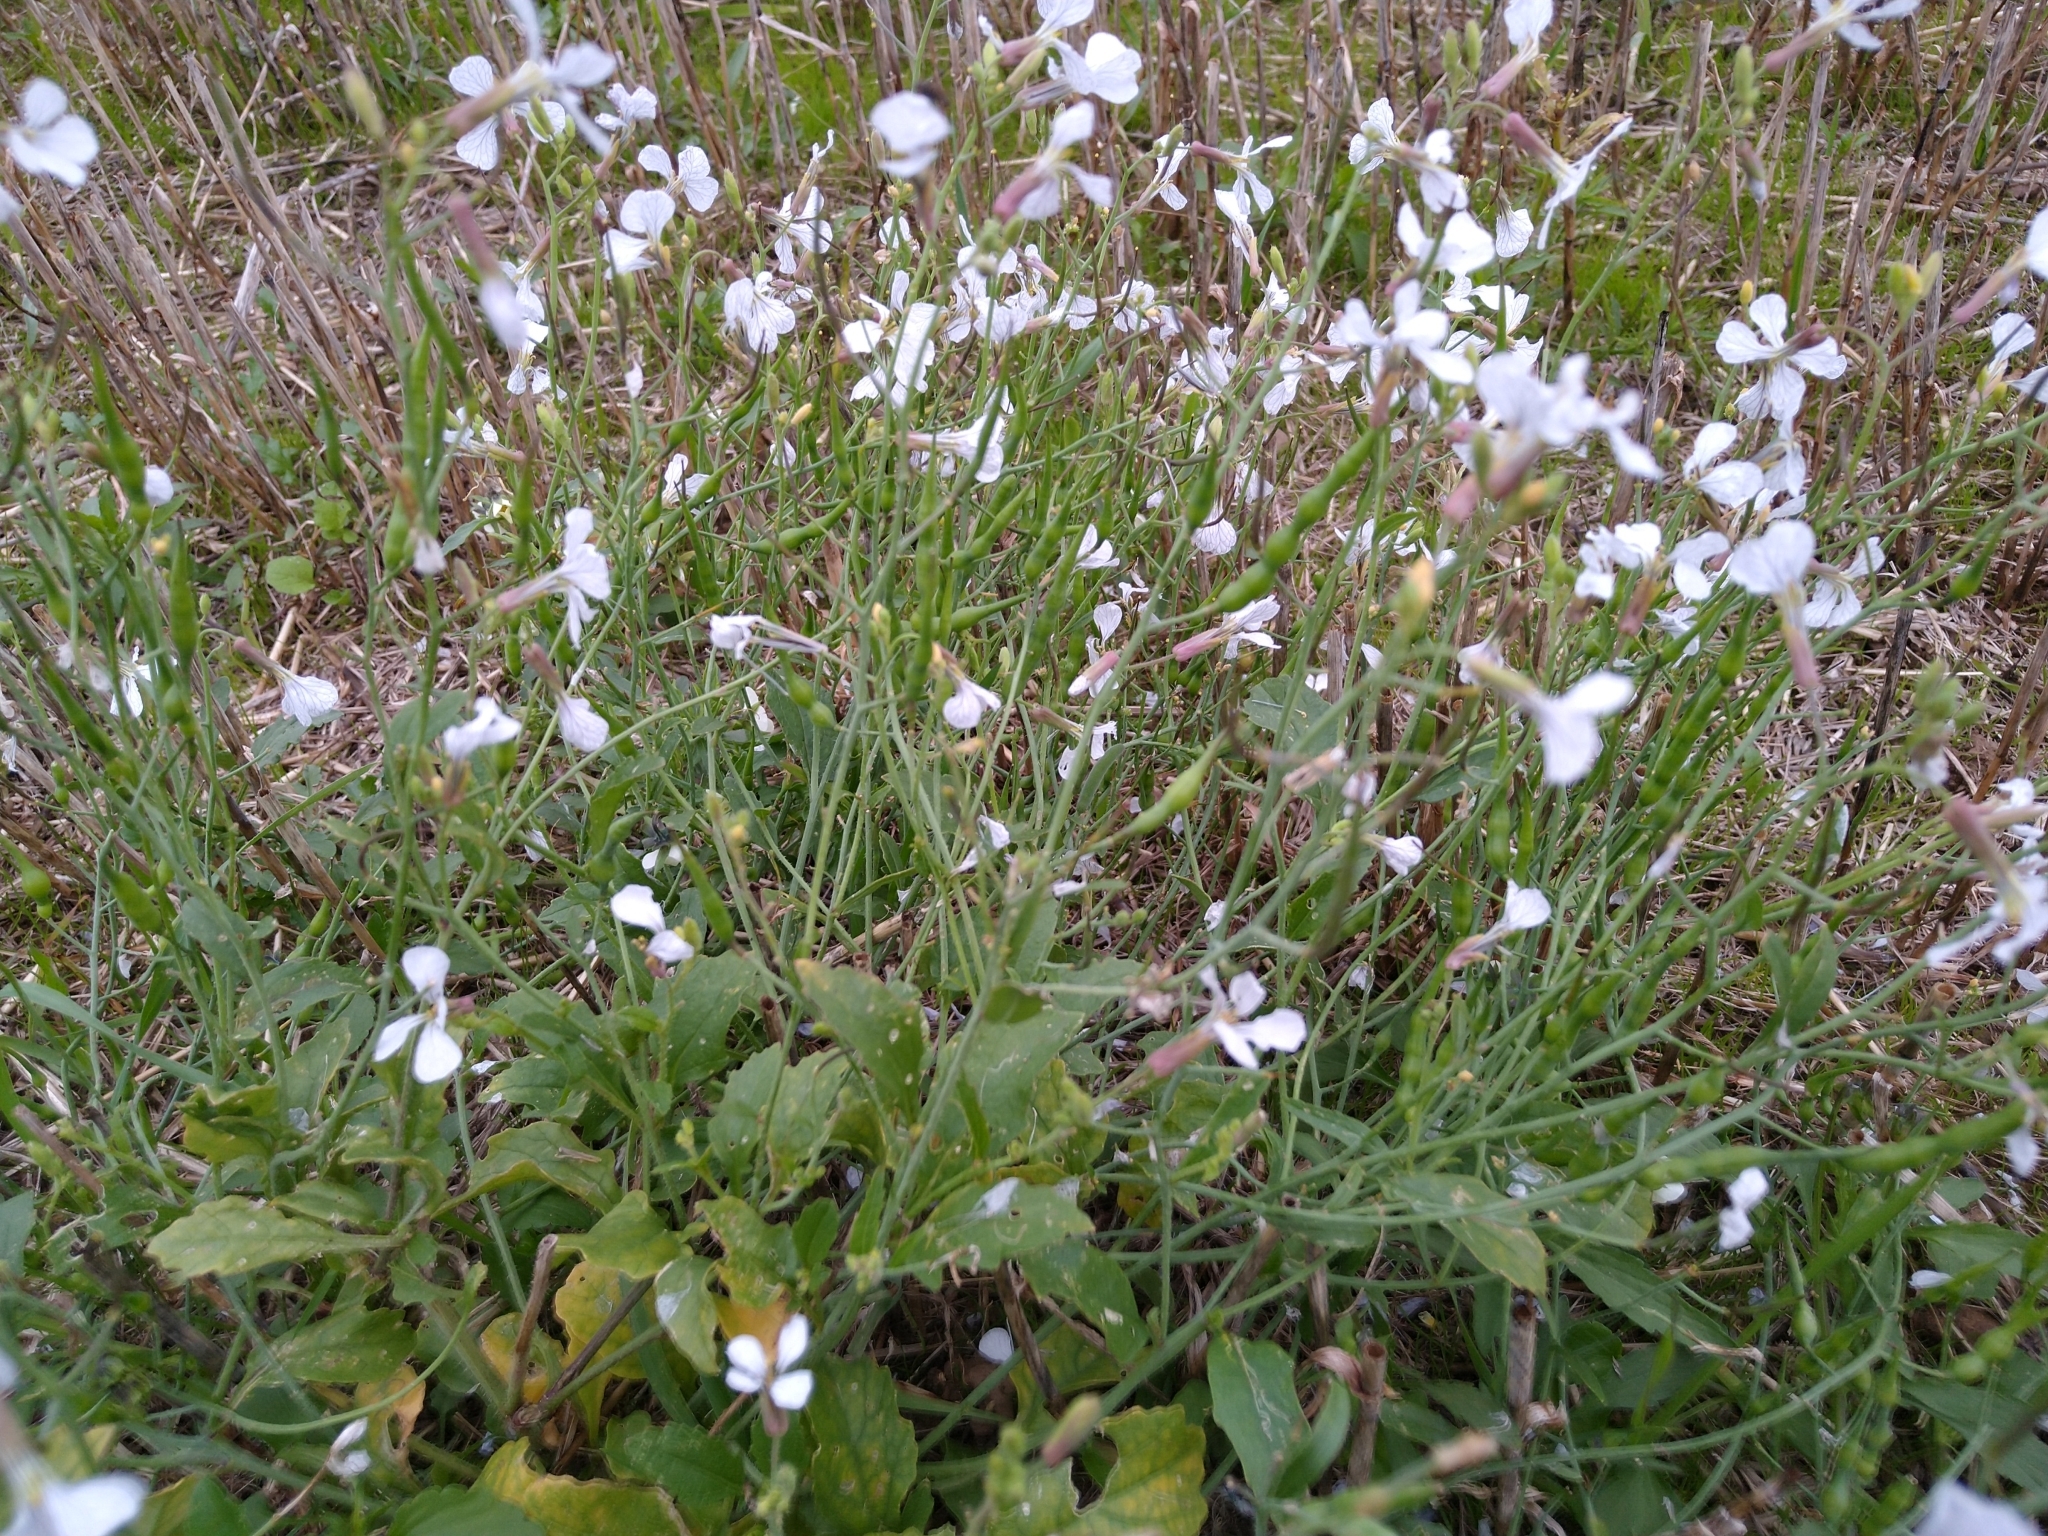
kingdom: Plantae
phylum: Tracheophyta
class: Magnoliopsida
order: Brassicales
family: Brassicaceae
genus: Raphanus
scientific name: Raphanus raphanistrum
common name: Wild radish
